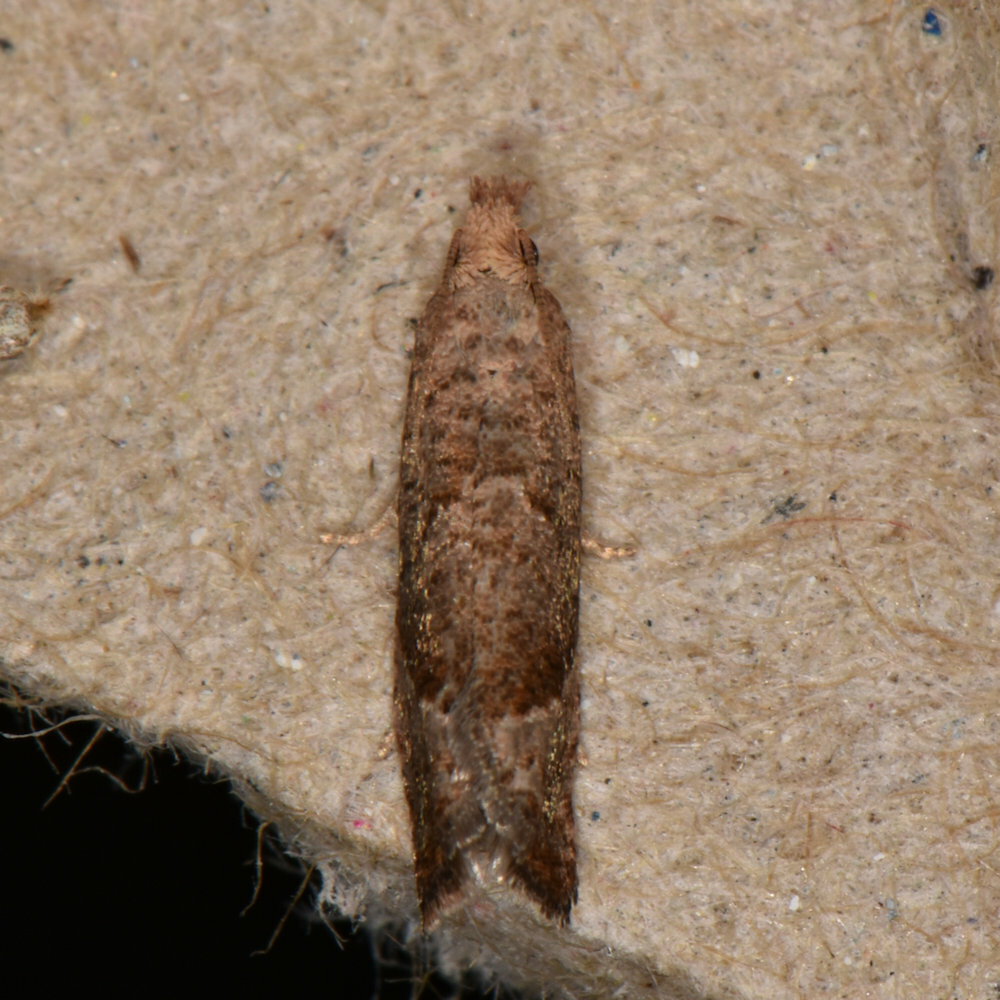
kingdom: Animalia
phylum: Arthropoda
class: Insecta
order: Lepidoptera
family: Tortricidae
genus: Pelochrista
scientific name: Pelochrista derelicta
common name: Derelict pelochrista moth
